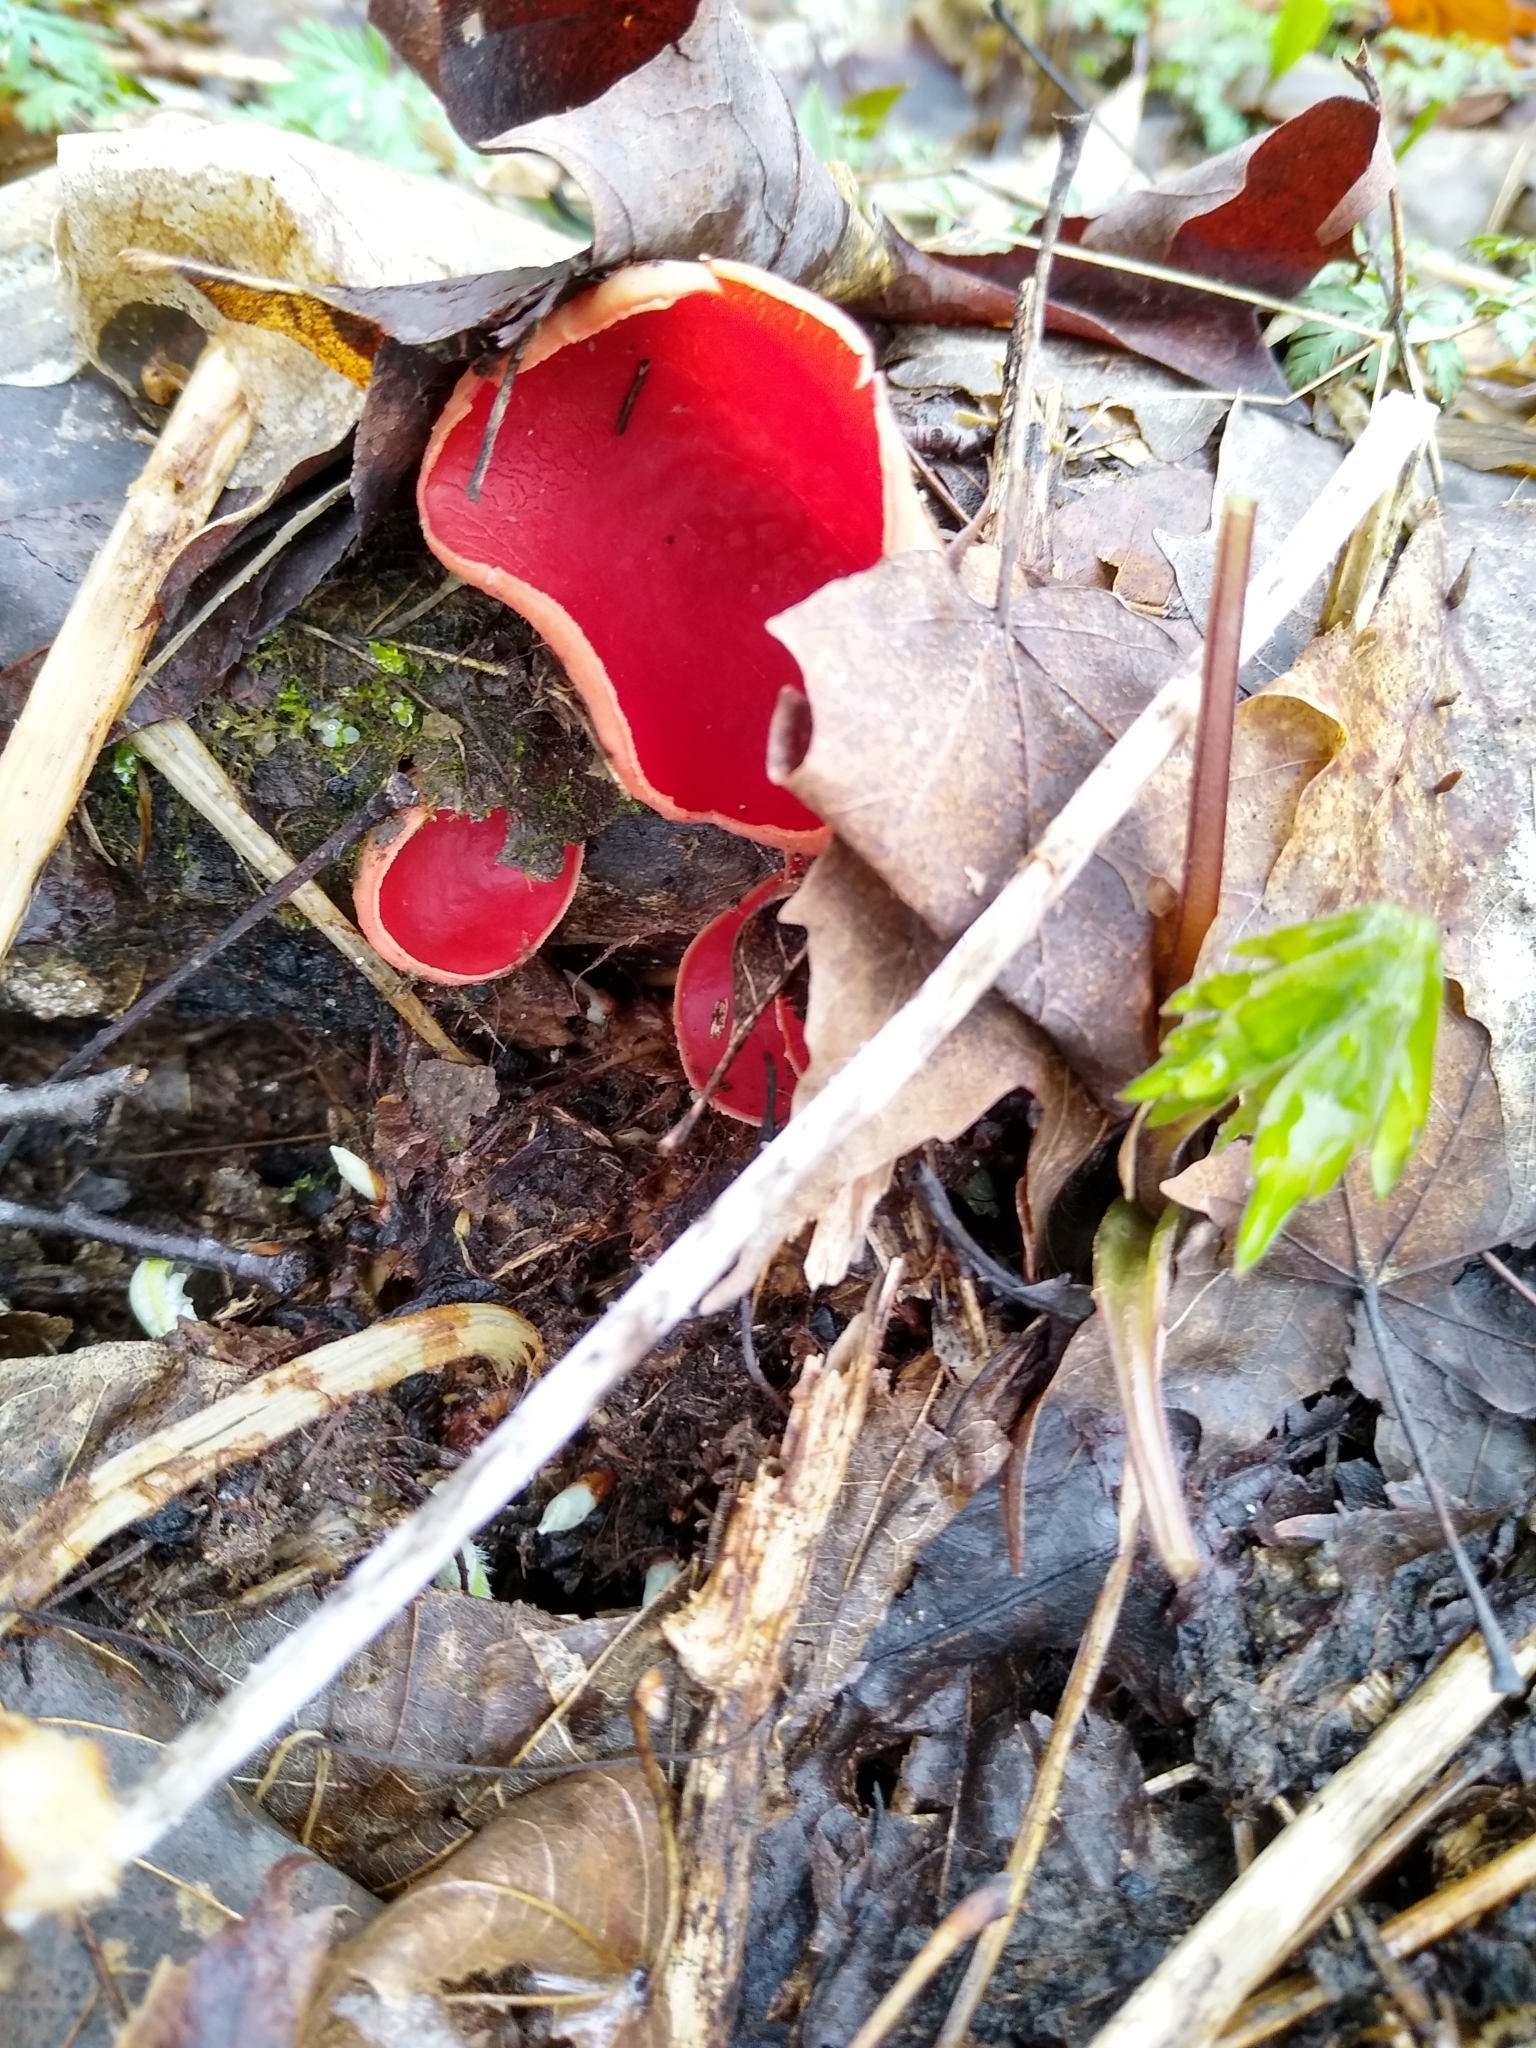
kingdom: Fungi
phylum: Ascomycota
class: Pezizomycetes
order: Pezizales
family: Sarcoscyphaceae
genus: Sarcoscypha
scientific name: Sarcoscypha austriaca
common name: Scarlet elfcup
